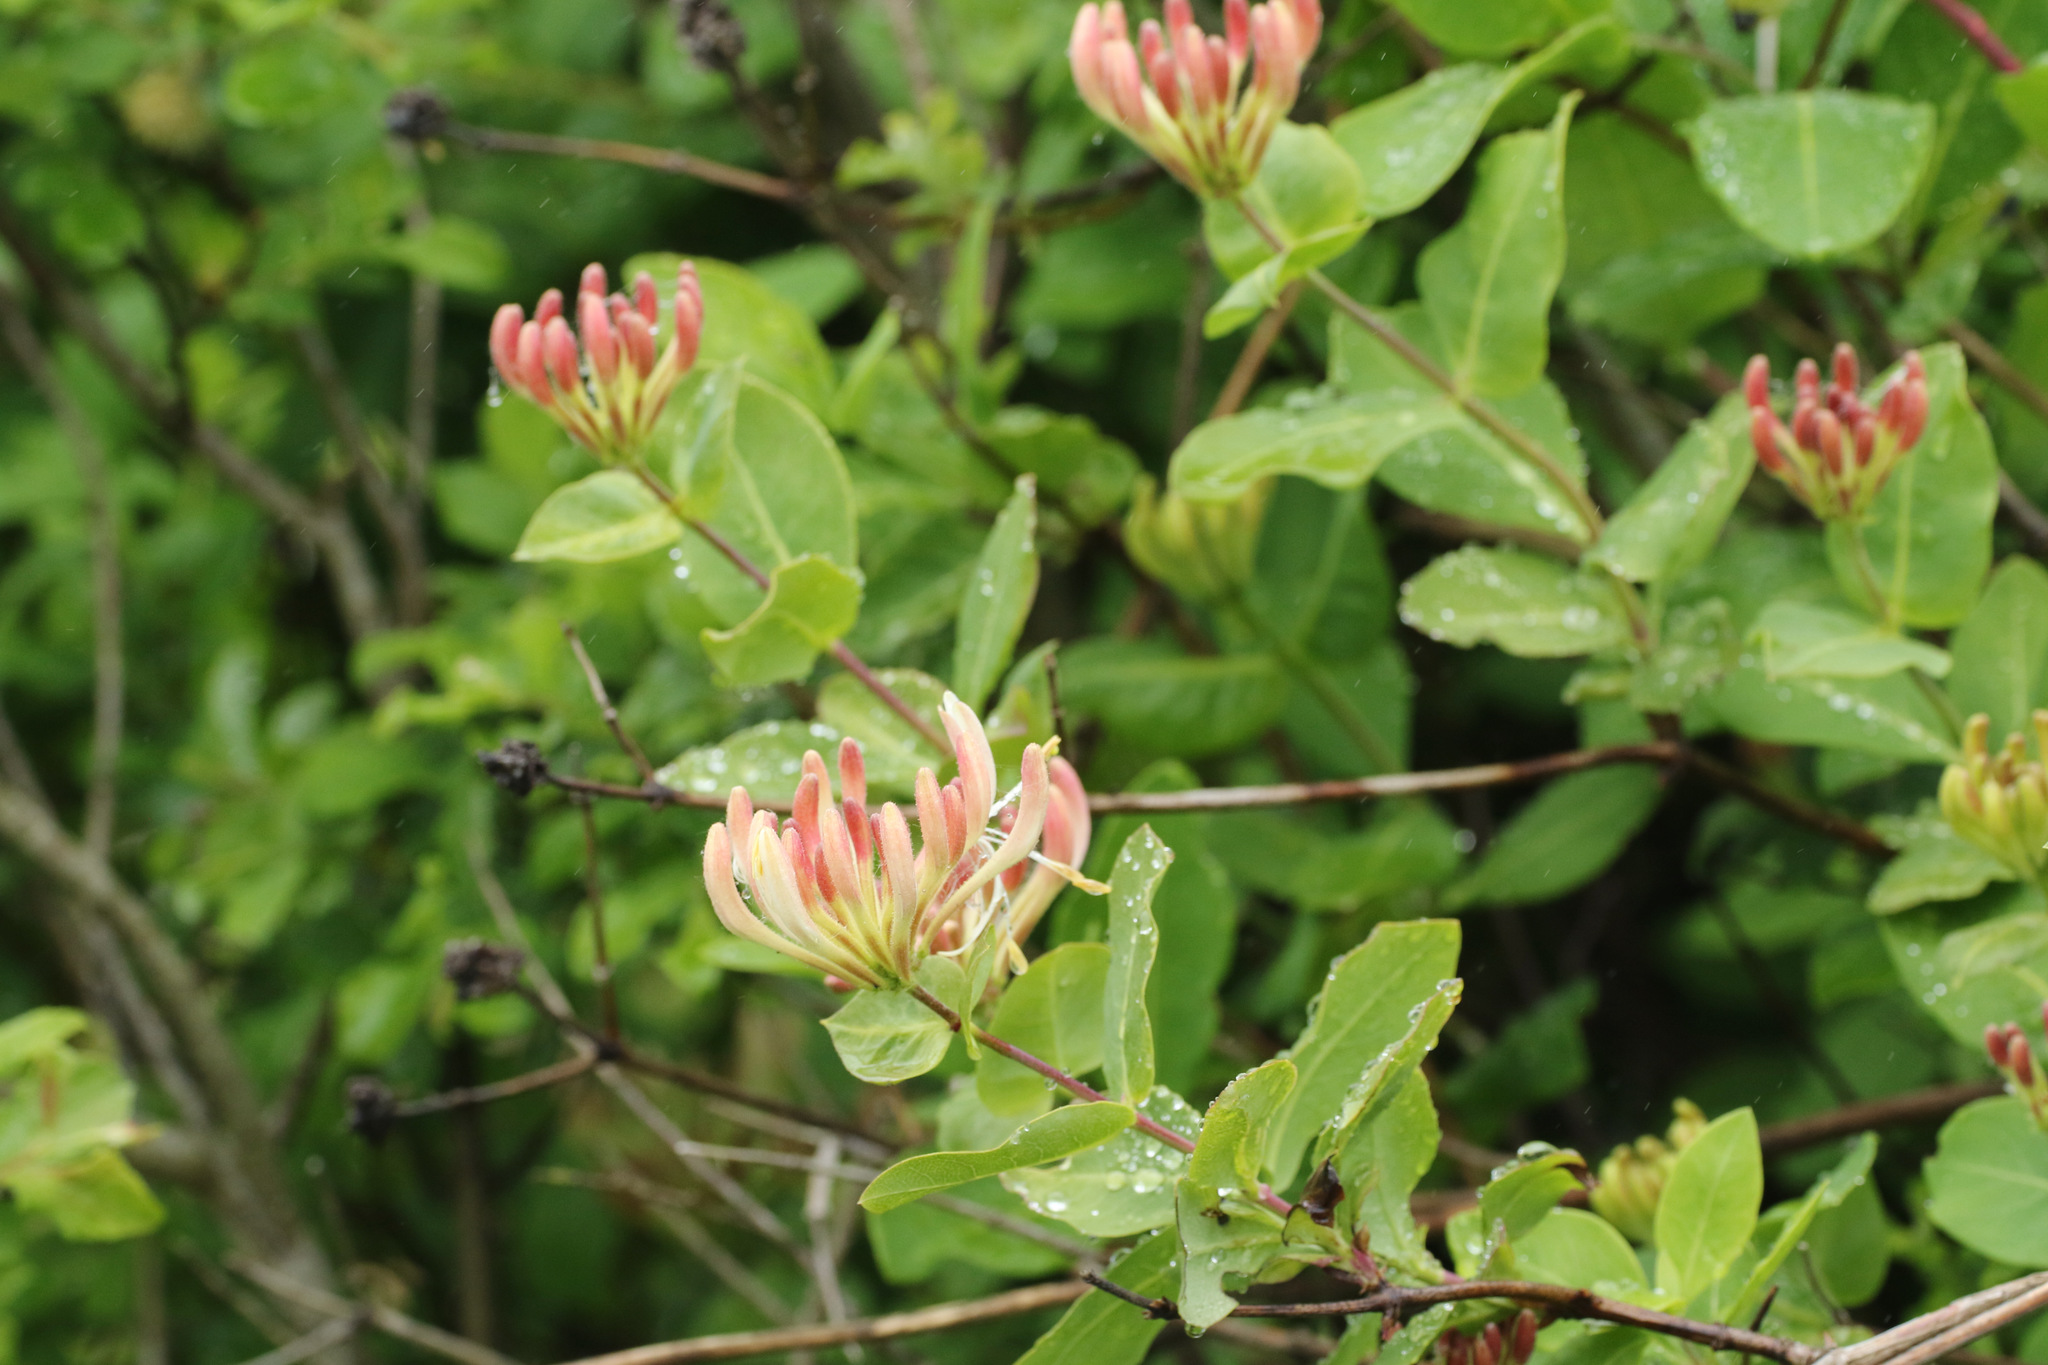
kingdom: Plantae
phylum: Tracheophyta
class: Magnoliopsida
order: Dipsacales
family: Caprifoliaceae
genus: Lonicera
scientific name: Lonicera periclymenum
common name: European honeysuckle
